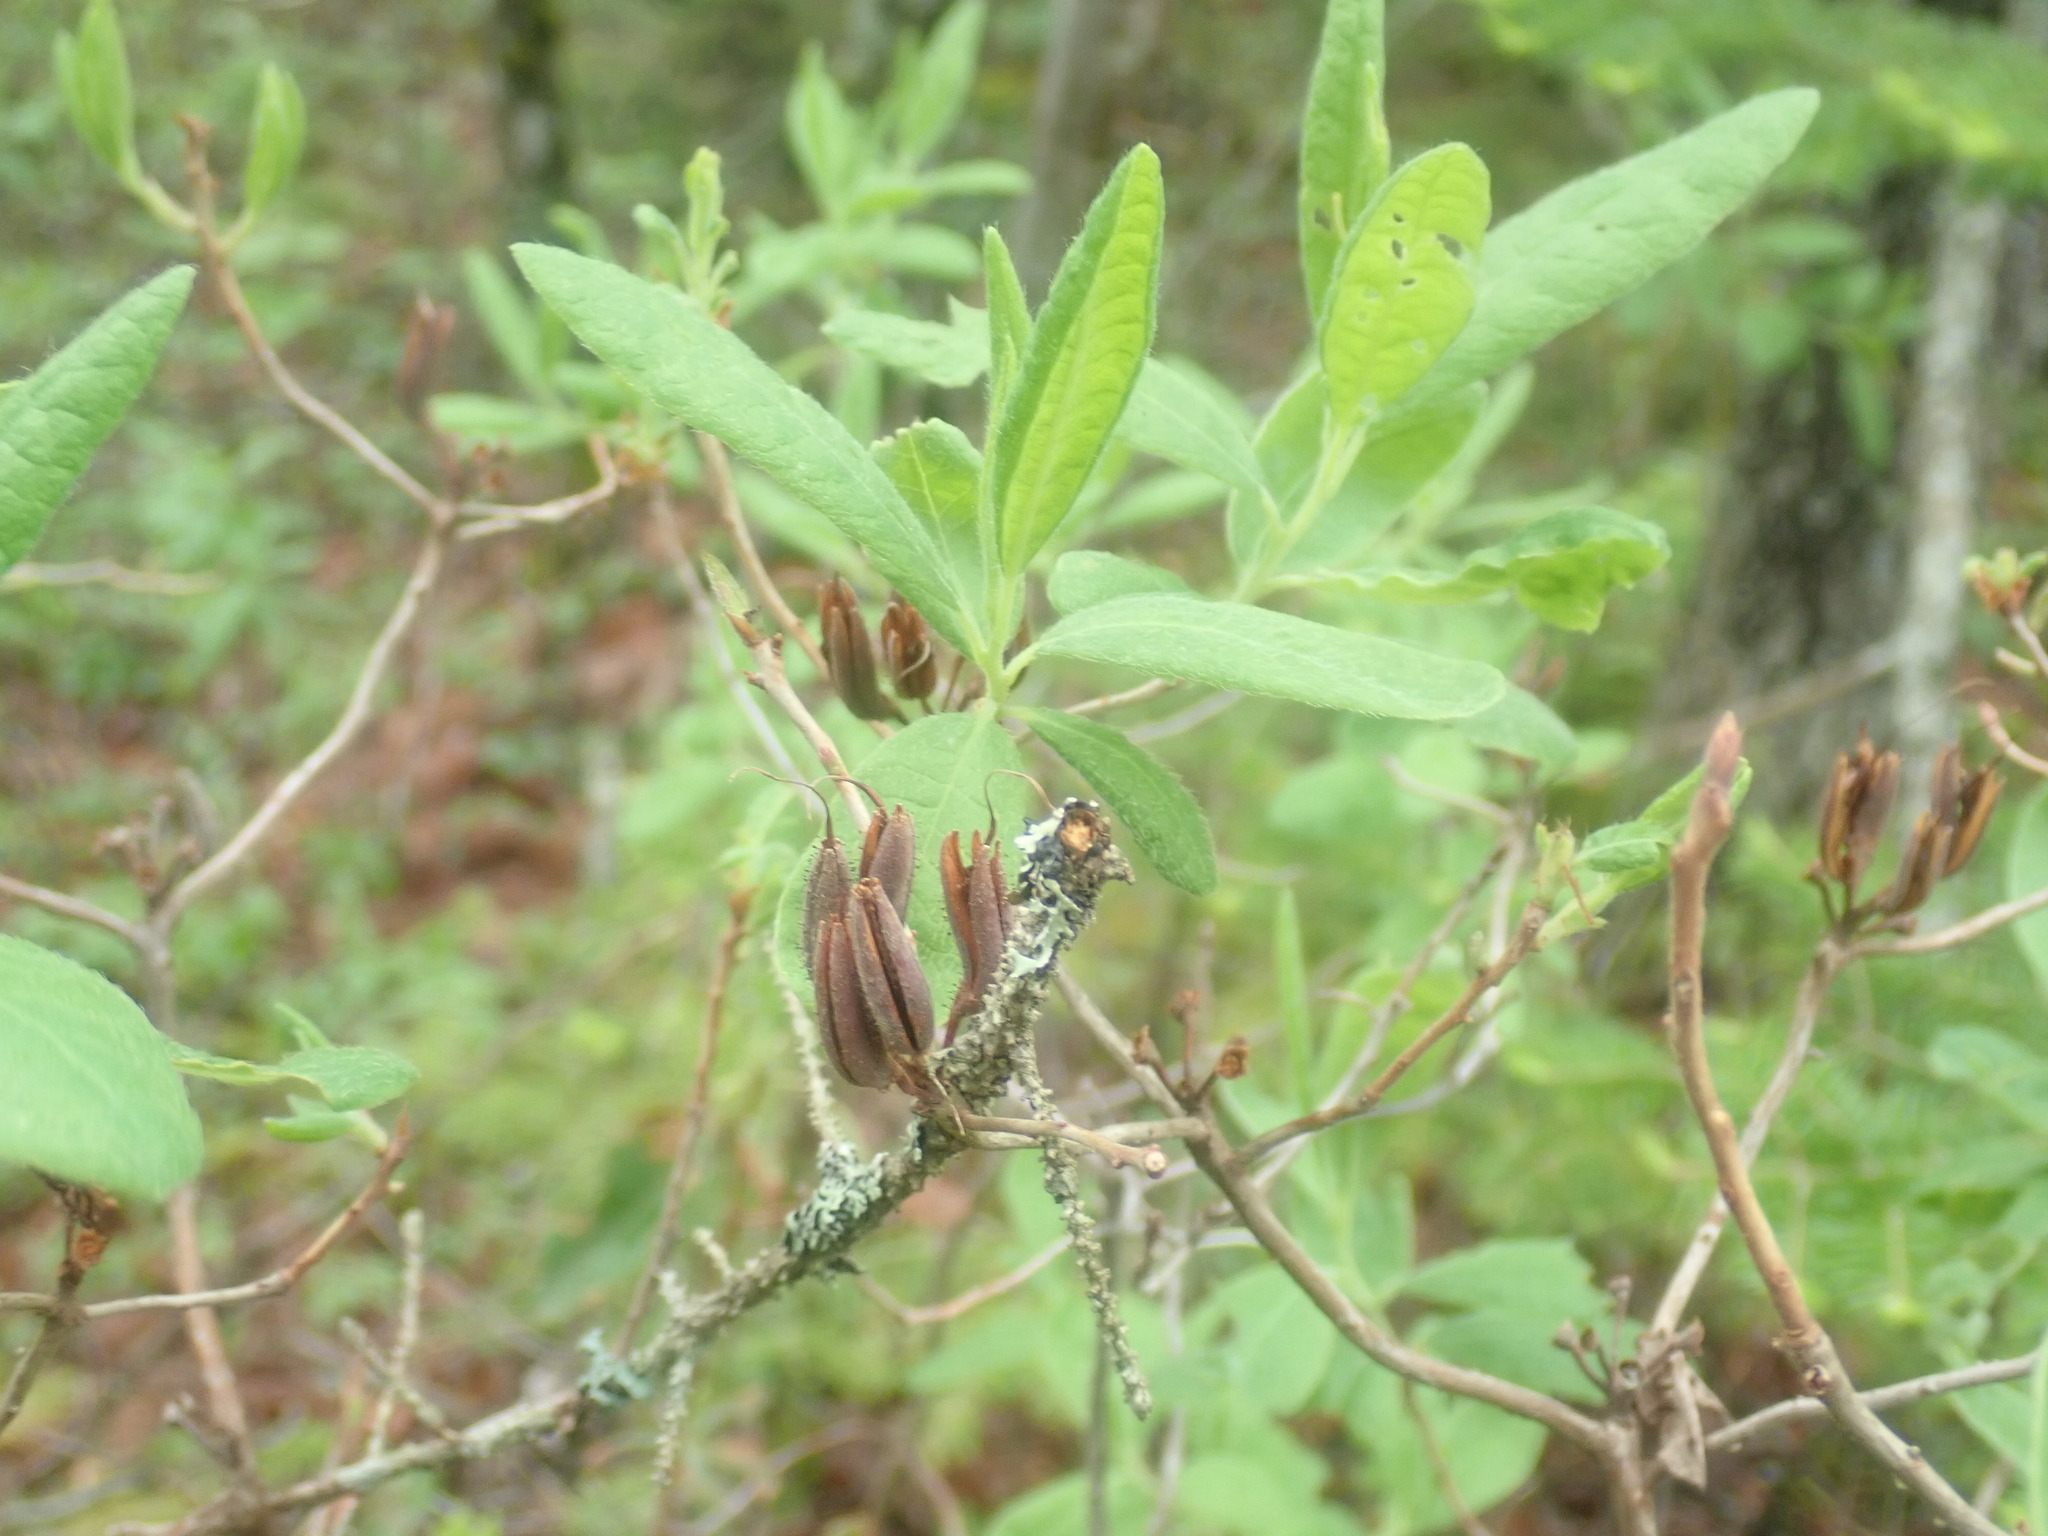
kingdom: Plantae
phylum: Tracheophyta
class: Magnoliopsida
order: Ericales
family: Ericaceae
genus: Rhododendron
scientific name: Rhododendron canadense
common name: Rhodora
